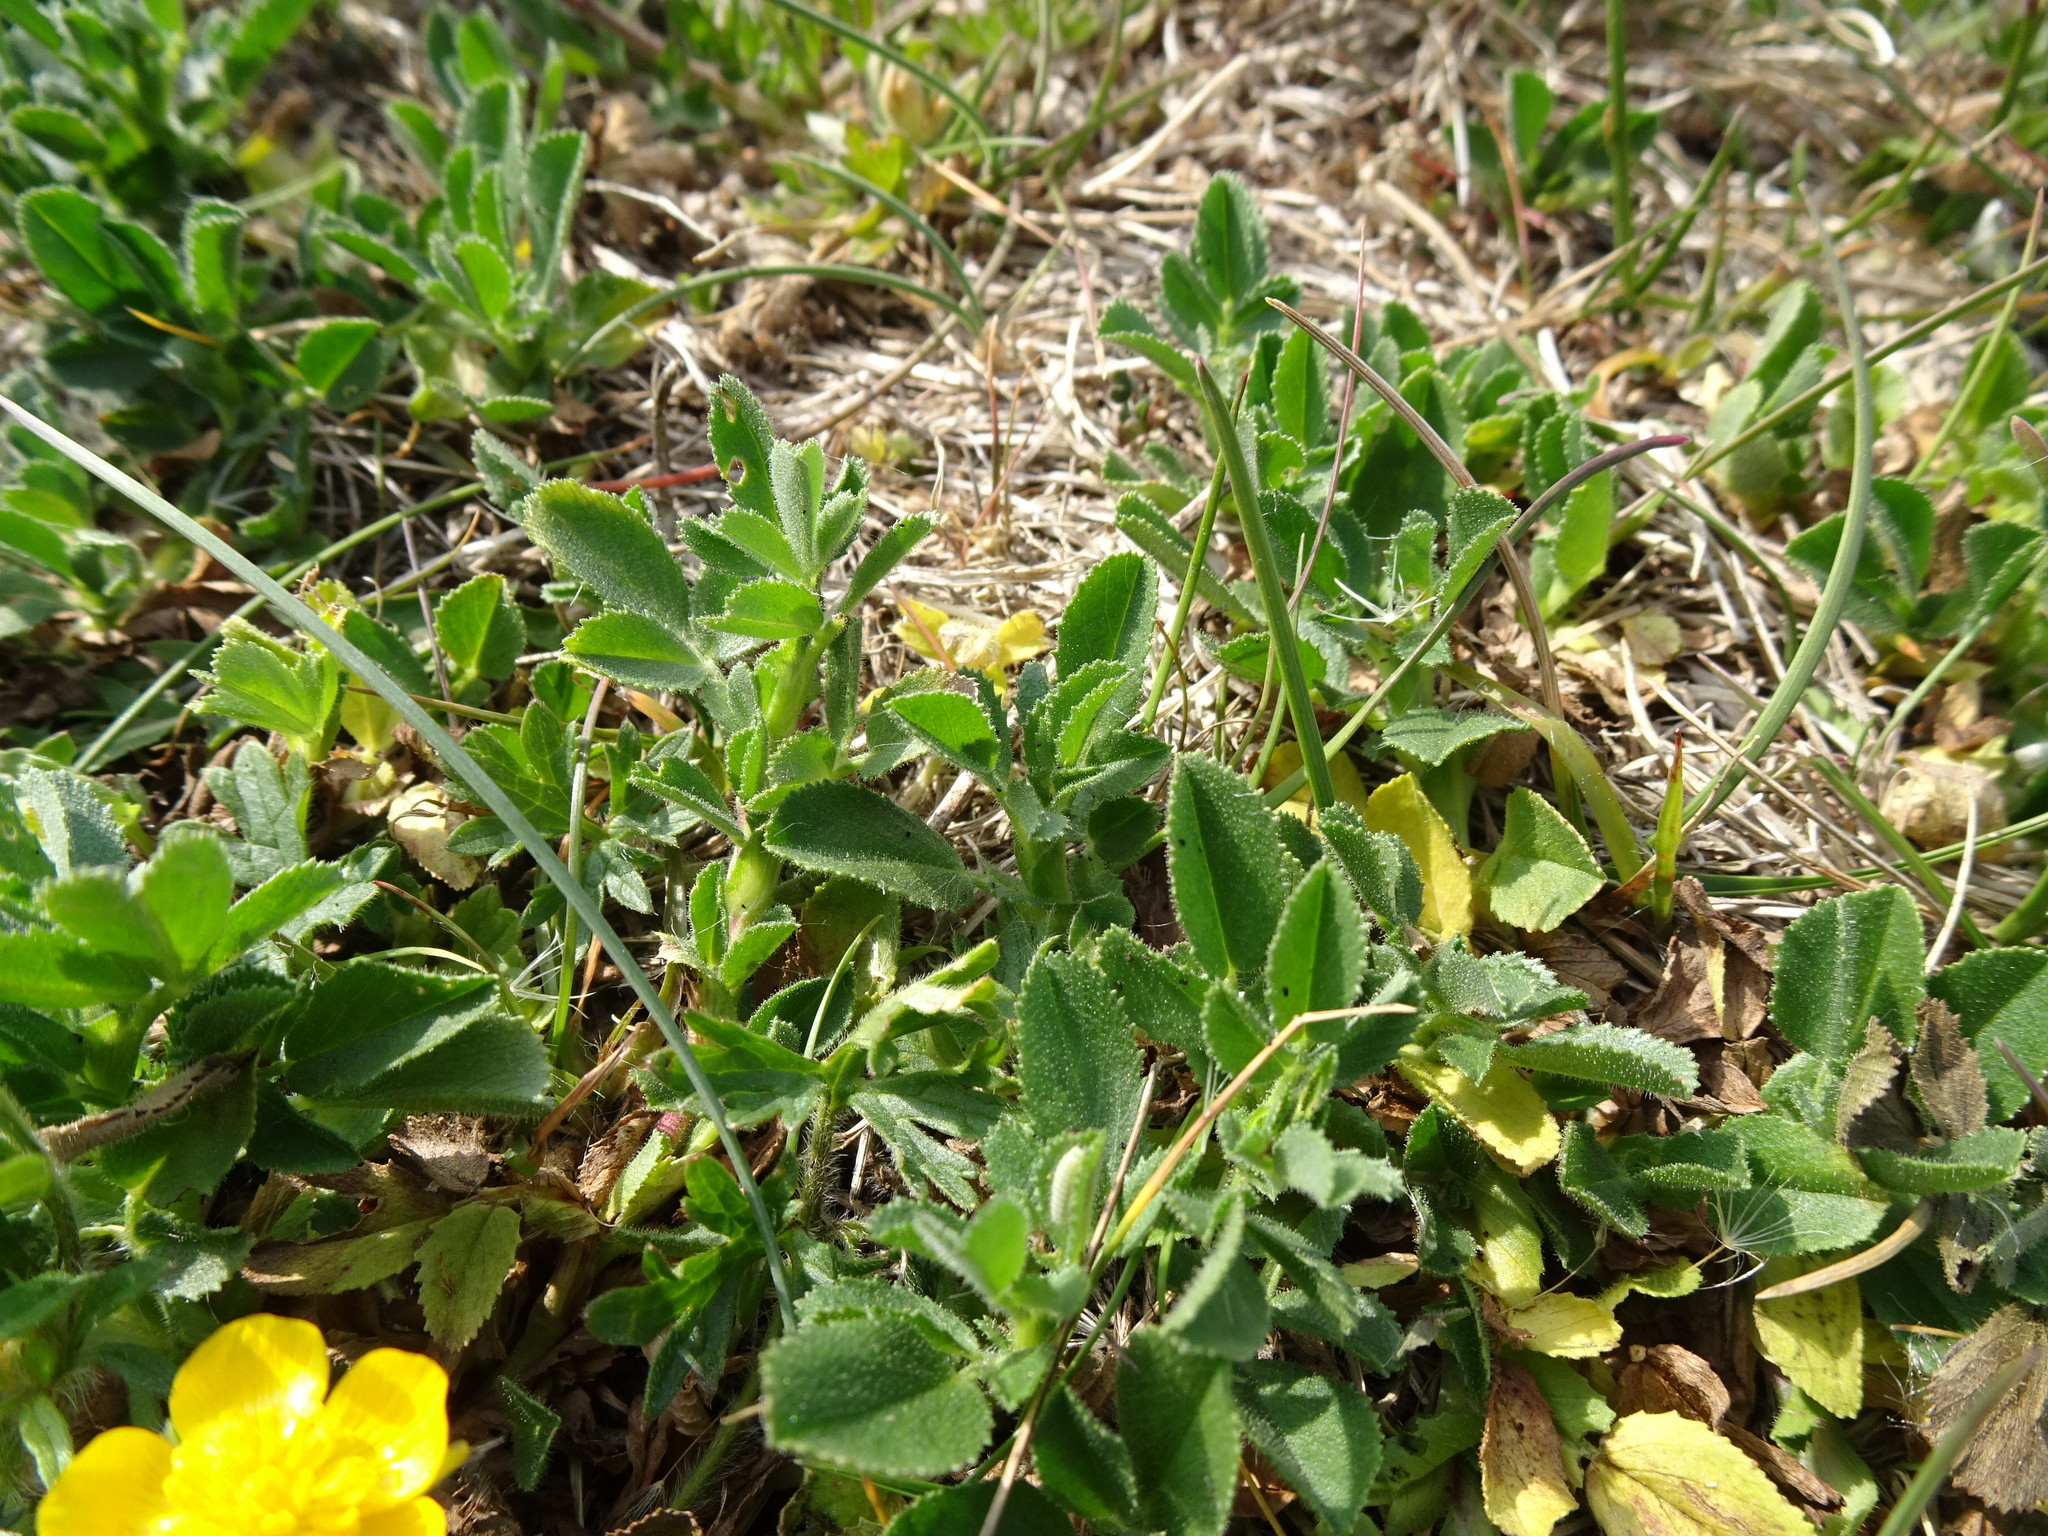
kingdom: Plantae
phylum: Tracheophyta
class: Magnoliopsida
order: Fabales
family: Fabaceae
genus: Ononis
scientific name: Ononis spinosa
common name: Spiny restharrow
